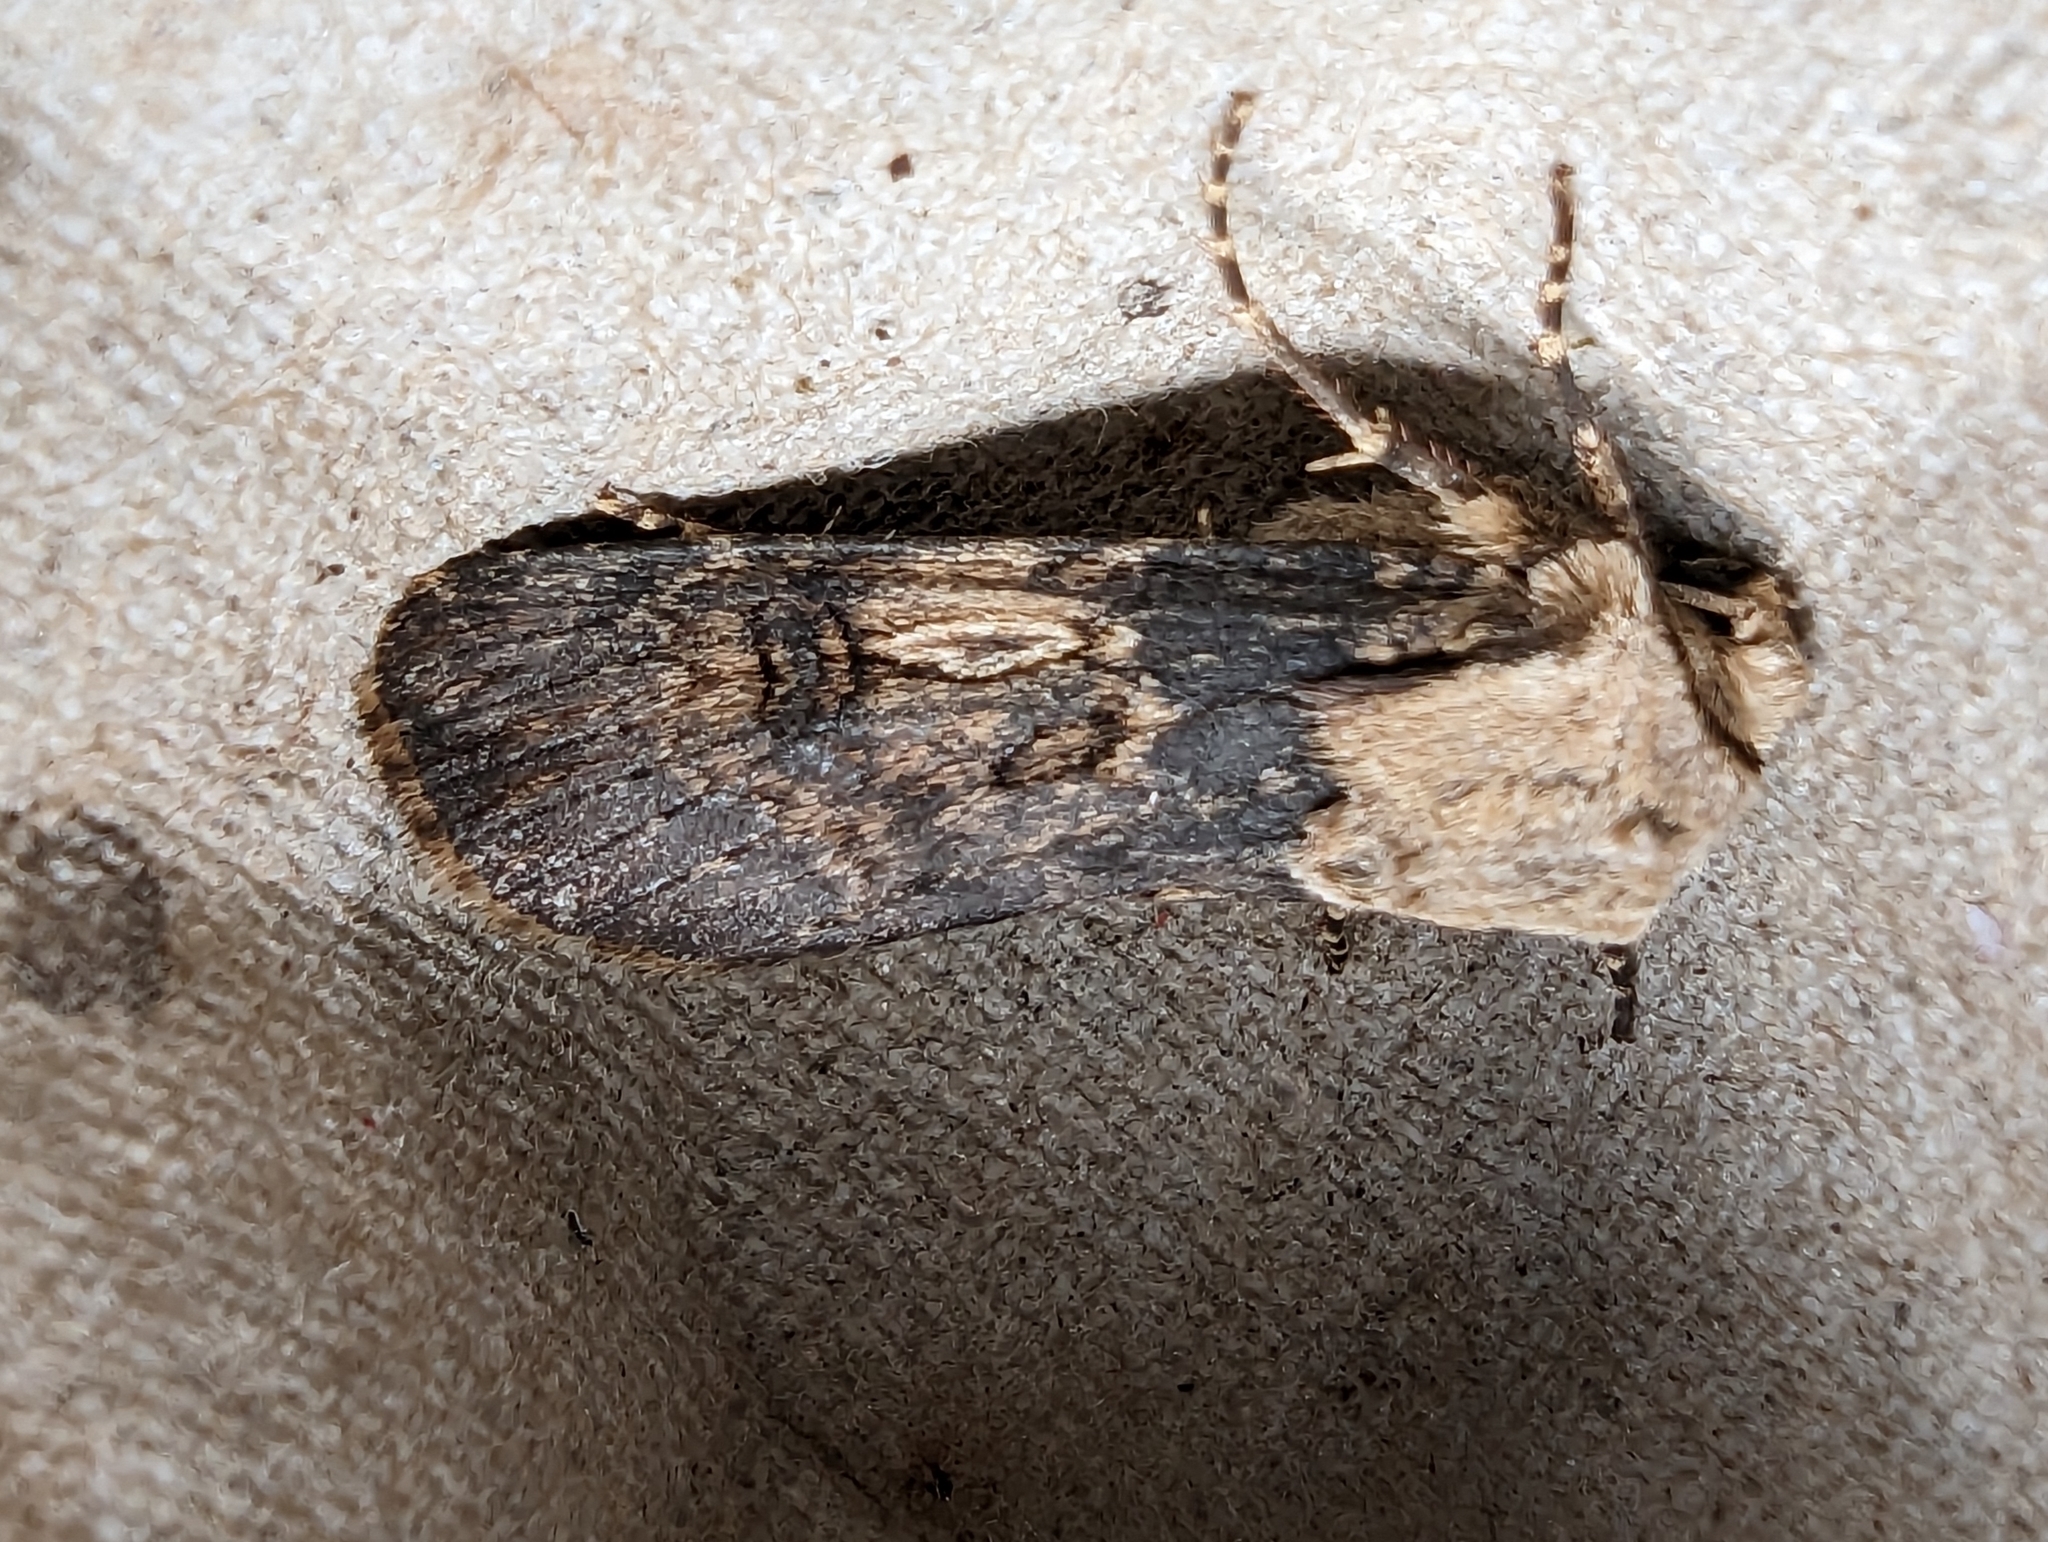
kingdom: Animalia
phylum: Arthropoda
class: Insecta
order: Lepidoptera
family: Noctuidae
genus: Agrotis
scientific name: Agrotis puta
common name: Shuttle-shaped dart
